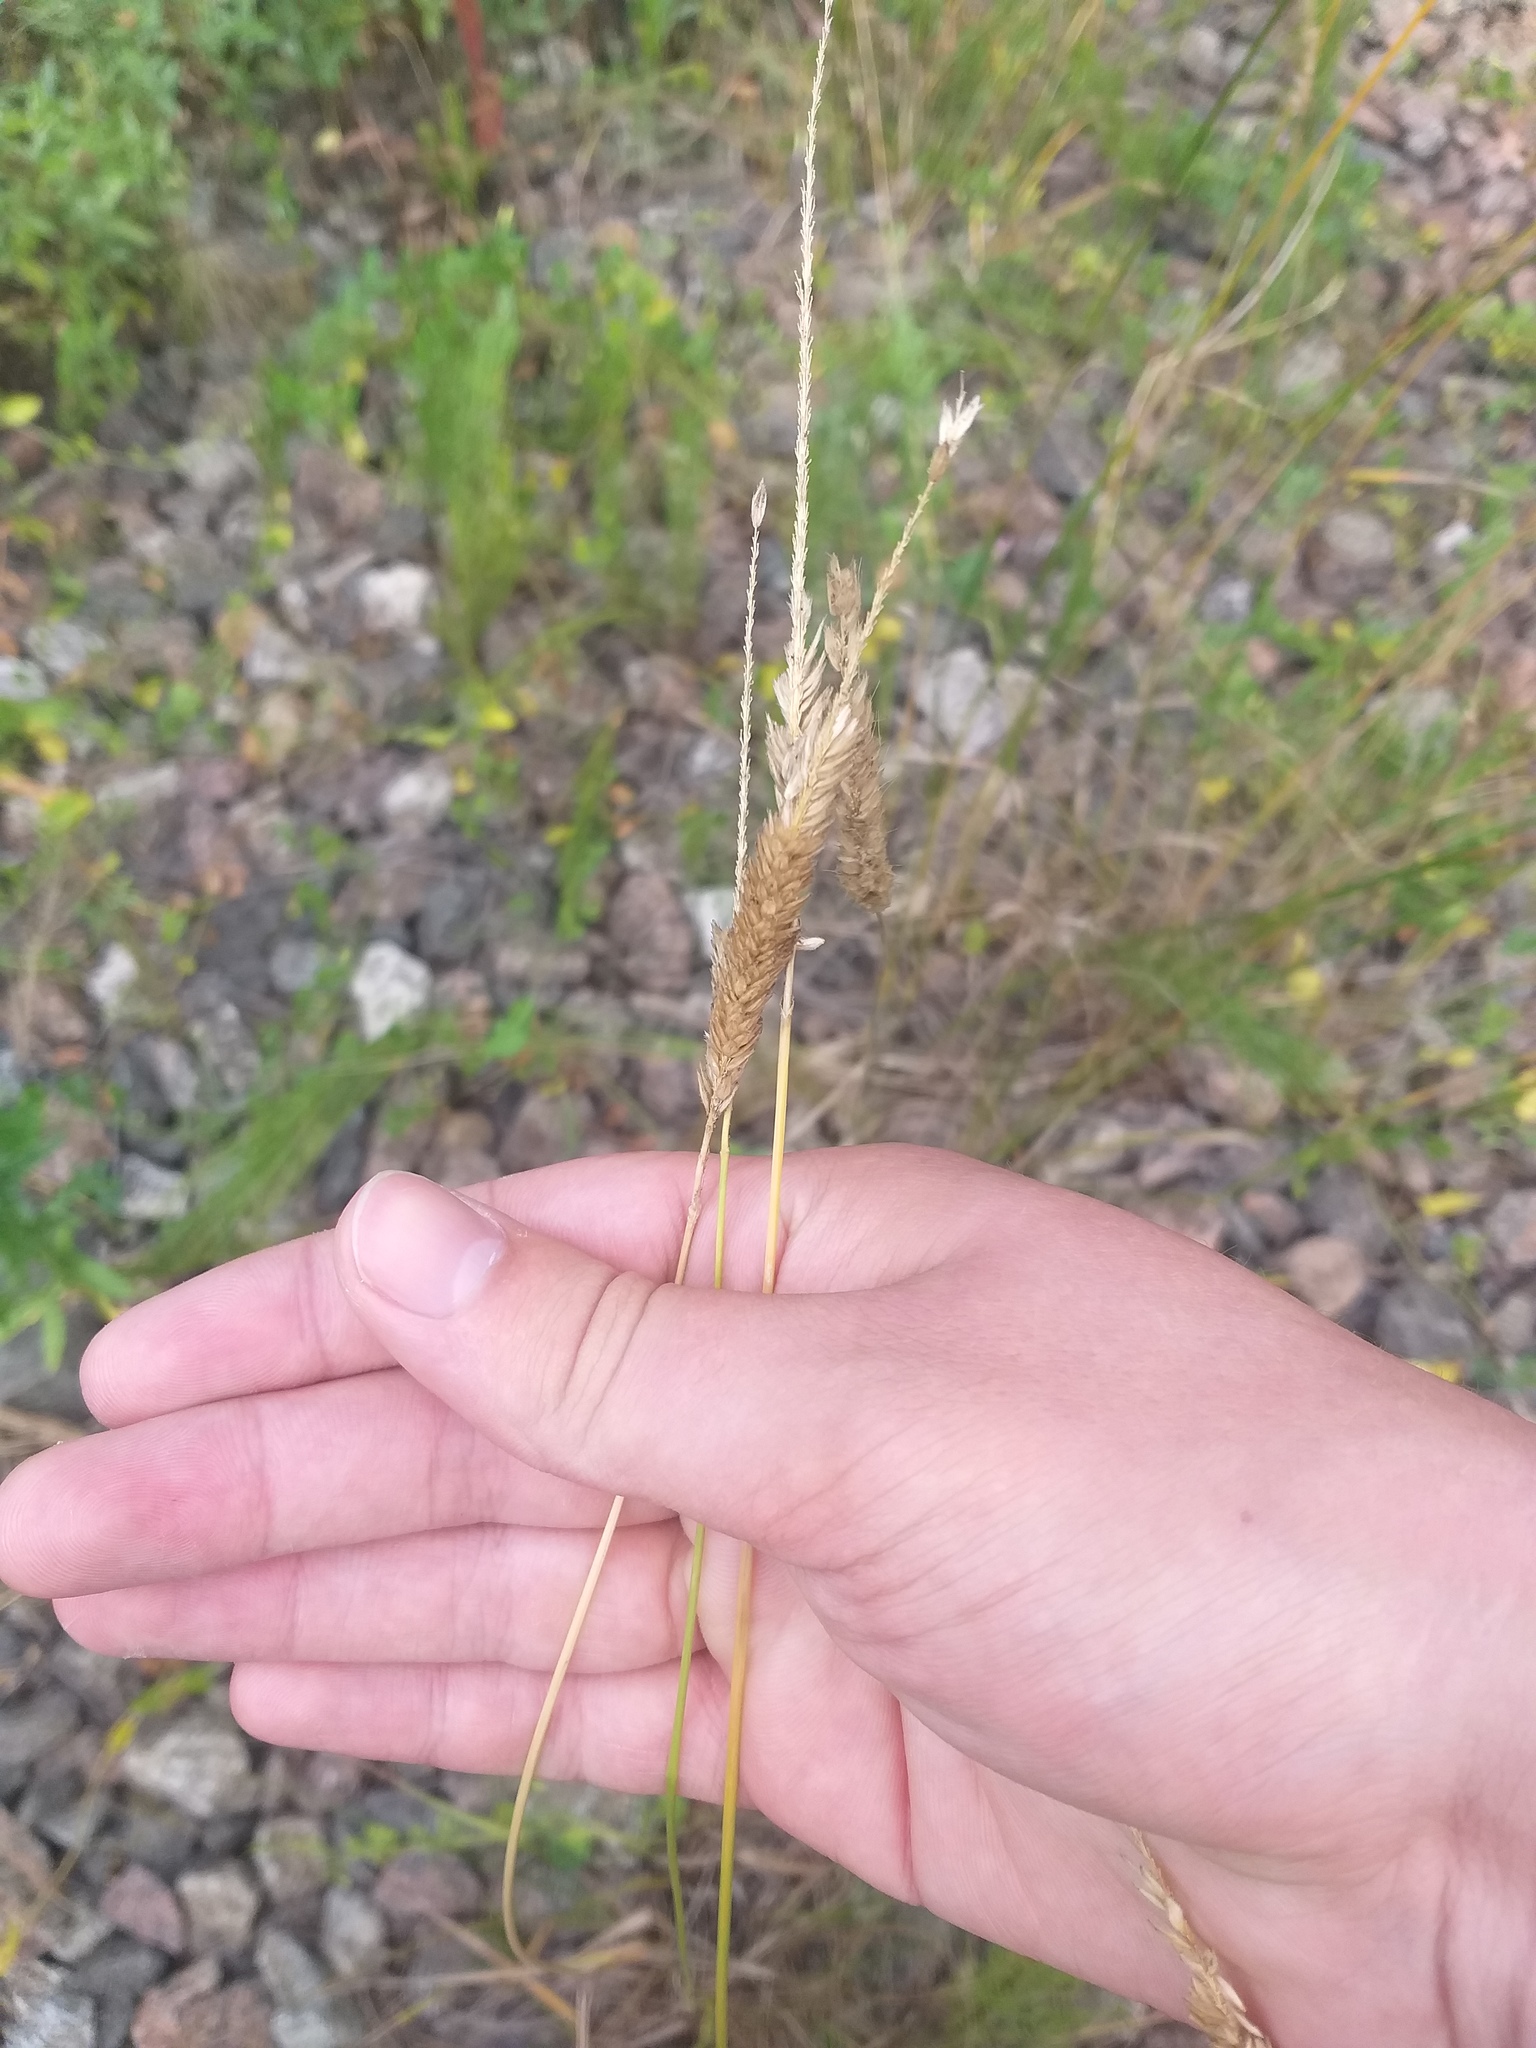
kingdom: Plantae
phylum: Tracheophyta
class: Liliopsida
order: Poales
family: Poaceae
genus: Alopecurus
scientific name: Alopecurus pratensis
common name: Meadow foxtail
